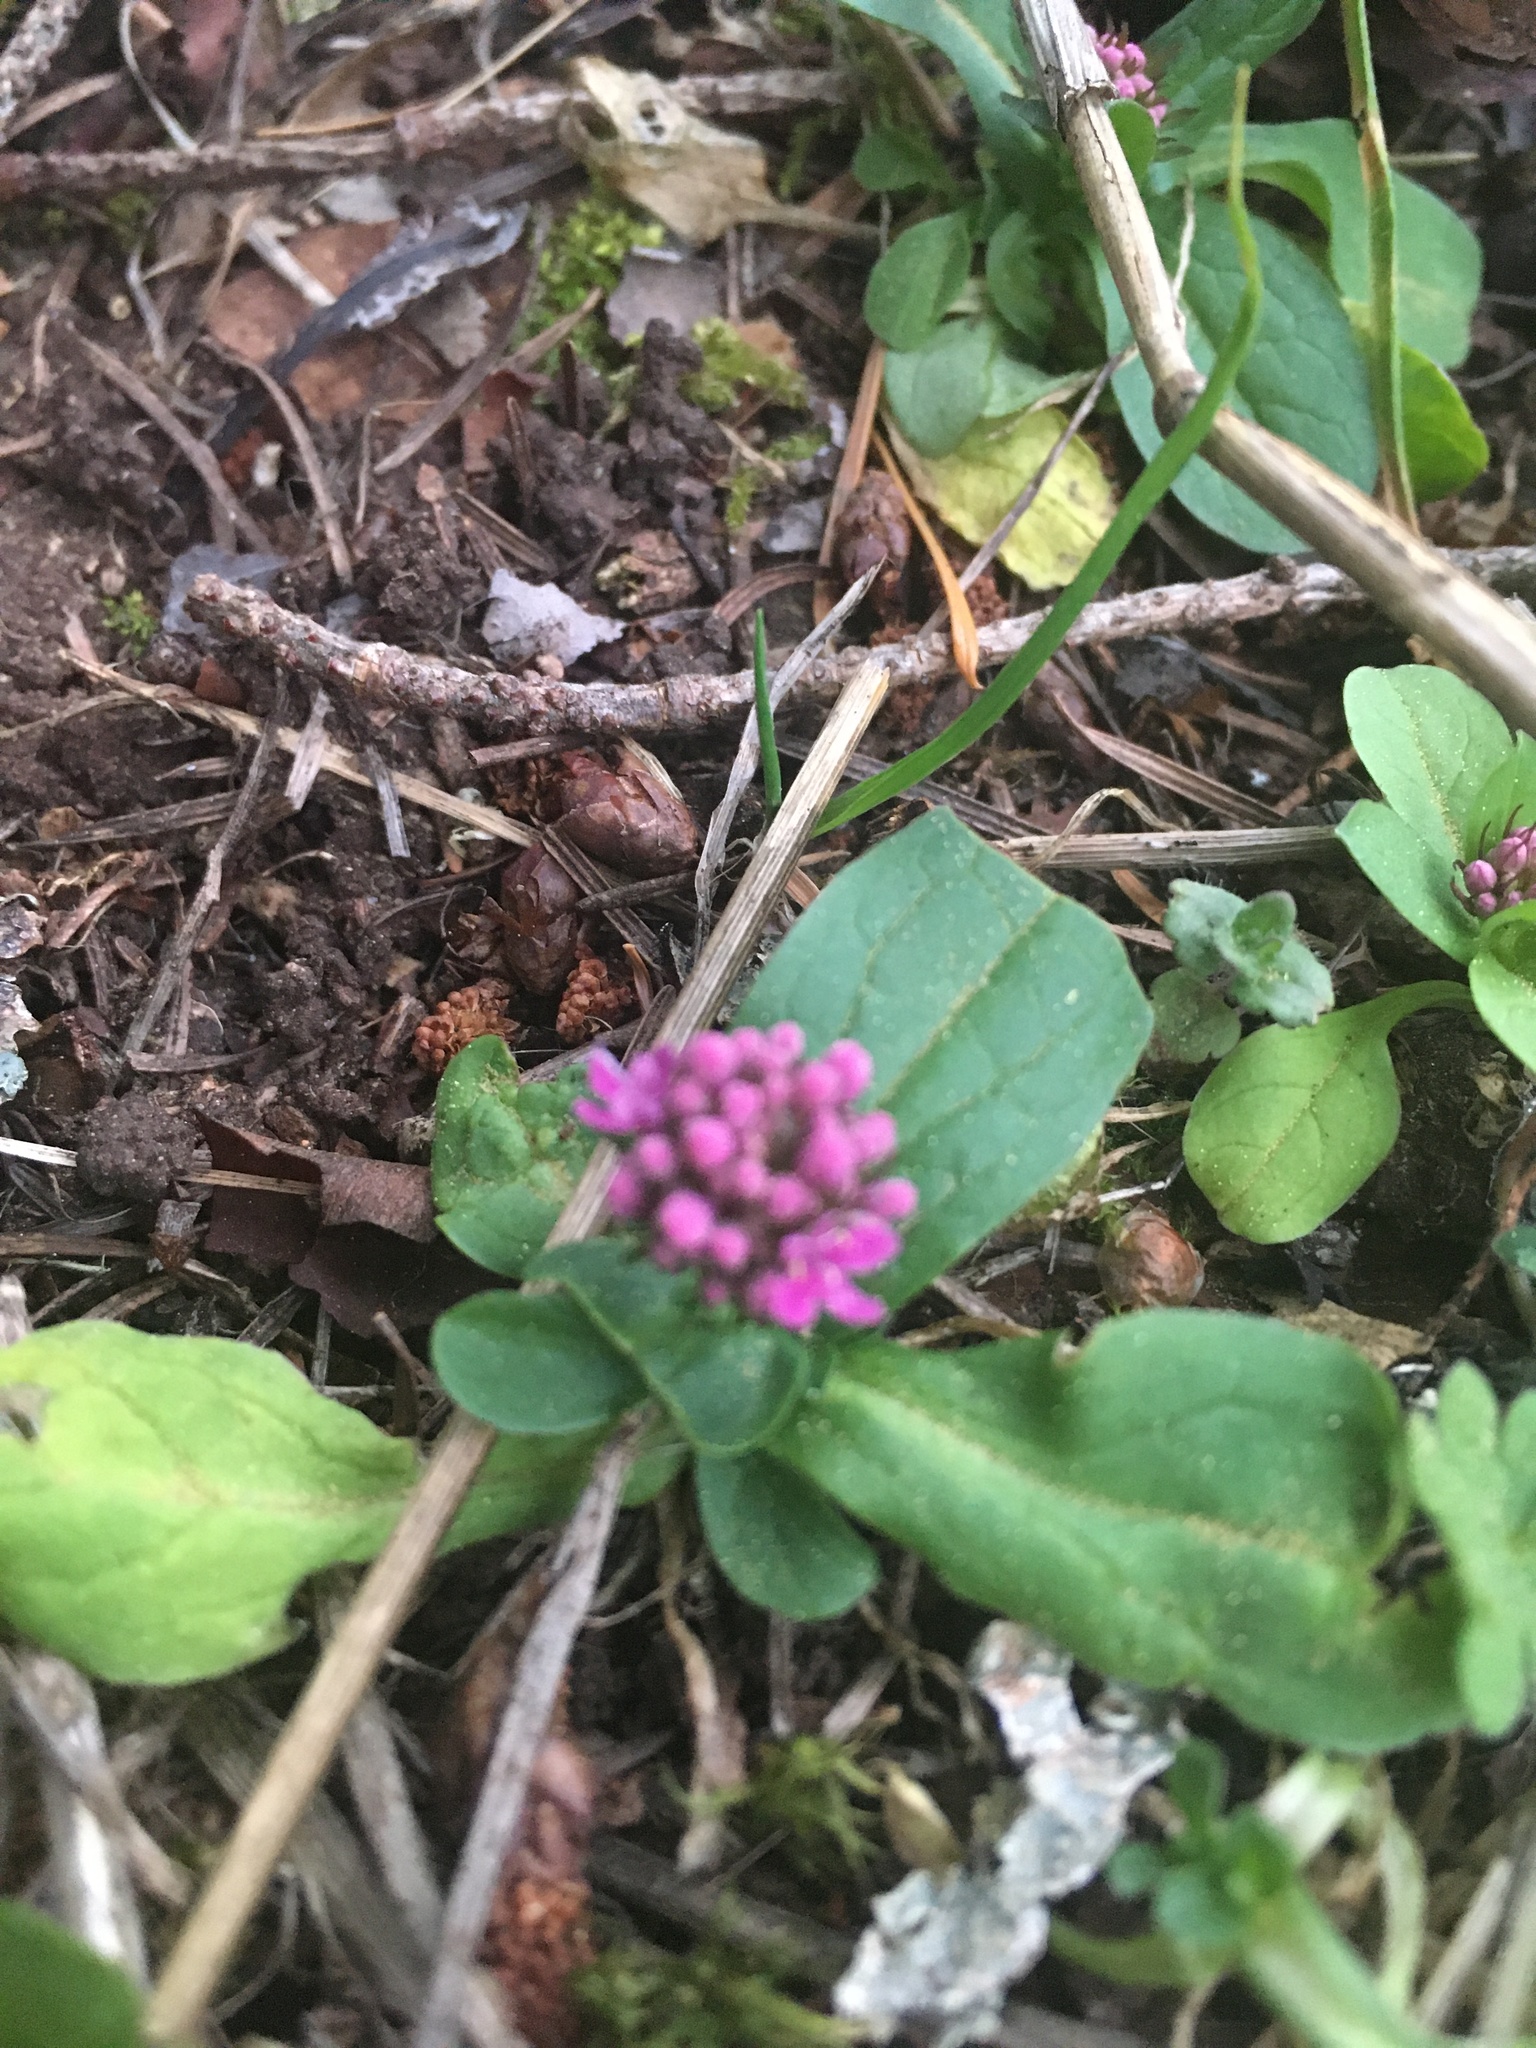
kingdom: Plantae
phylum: Tracheophyta
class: Magnoliopsida
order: Dipsacales
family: Caprifoliaceae
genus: Plectritis
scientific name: Plectritis congesta
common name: Pink plectritis
